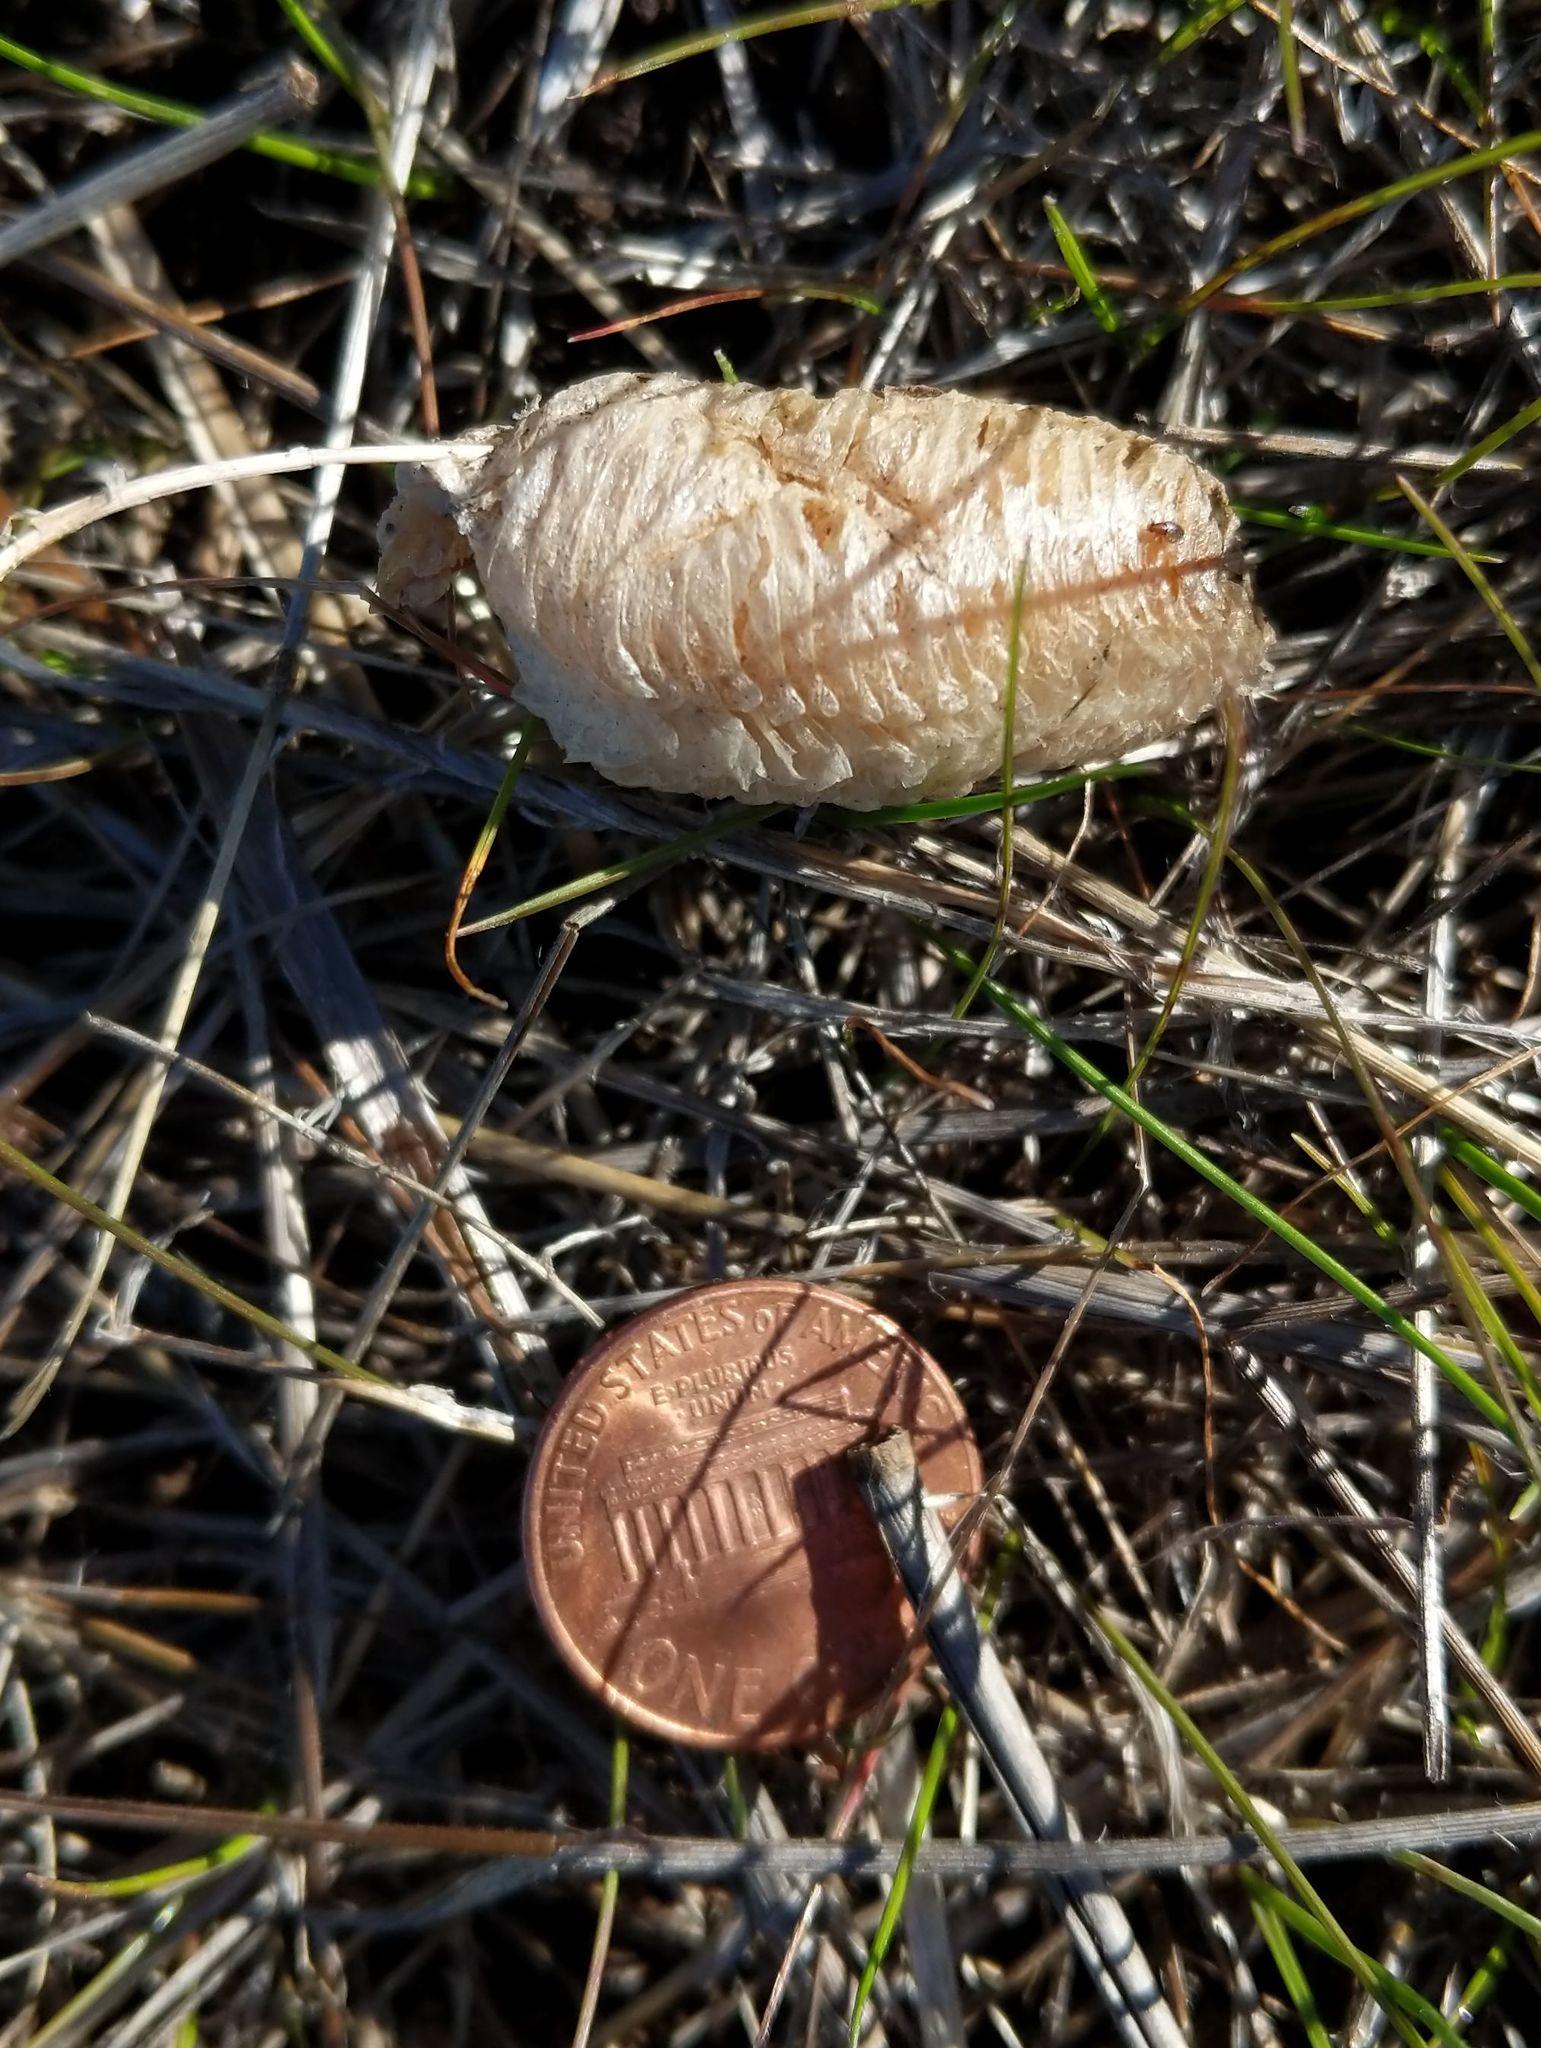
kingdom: Animalia
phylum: Arthropoda
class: Insecta
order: Mantodea
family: Mantidae
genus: Mantis
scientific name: Mantis religiosa
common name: Praying mantis
